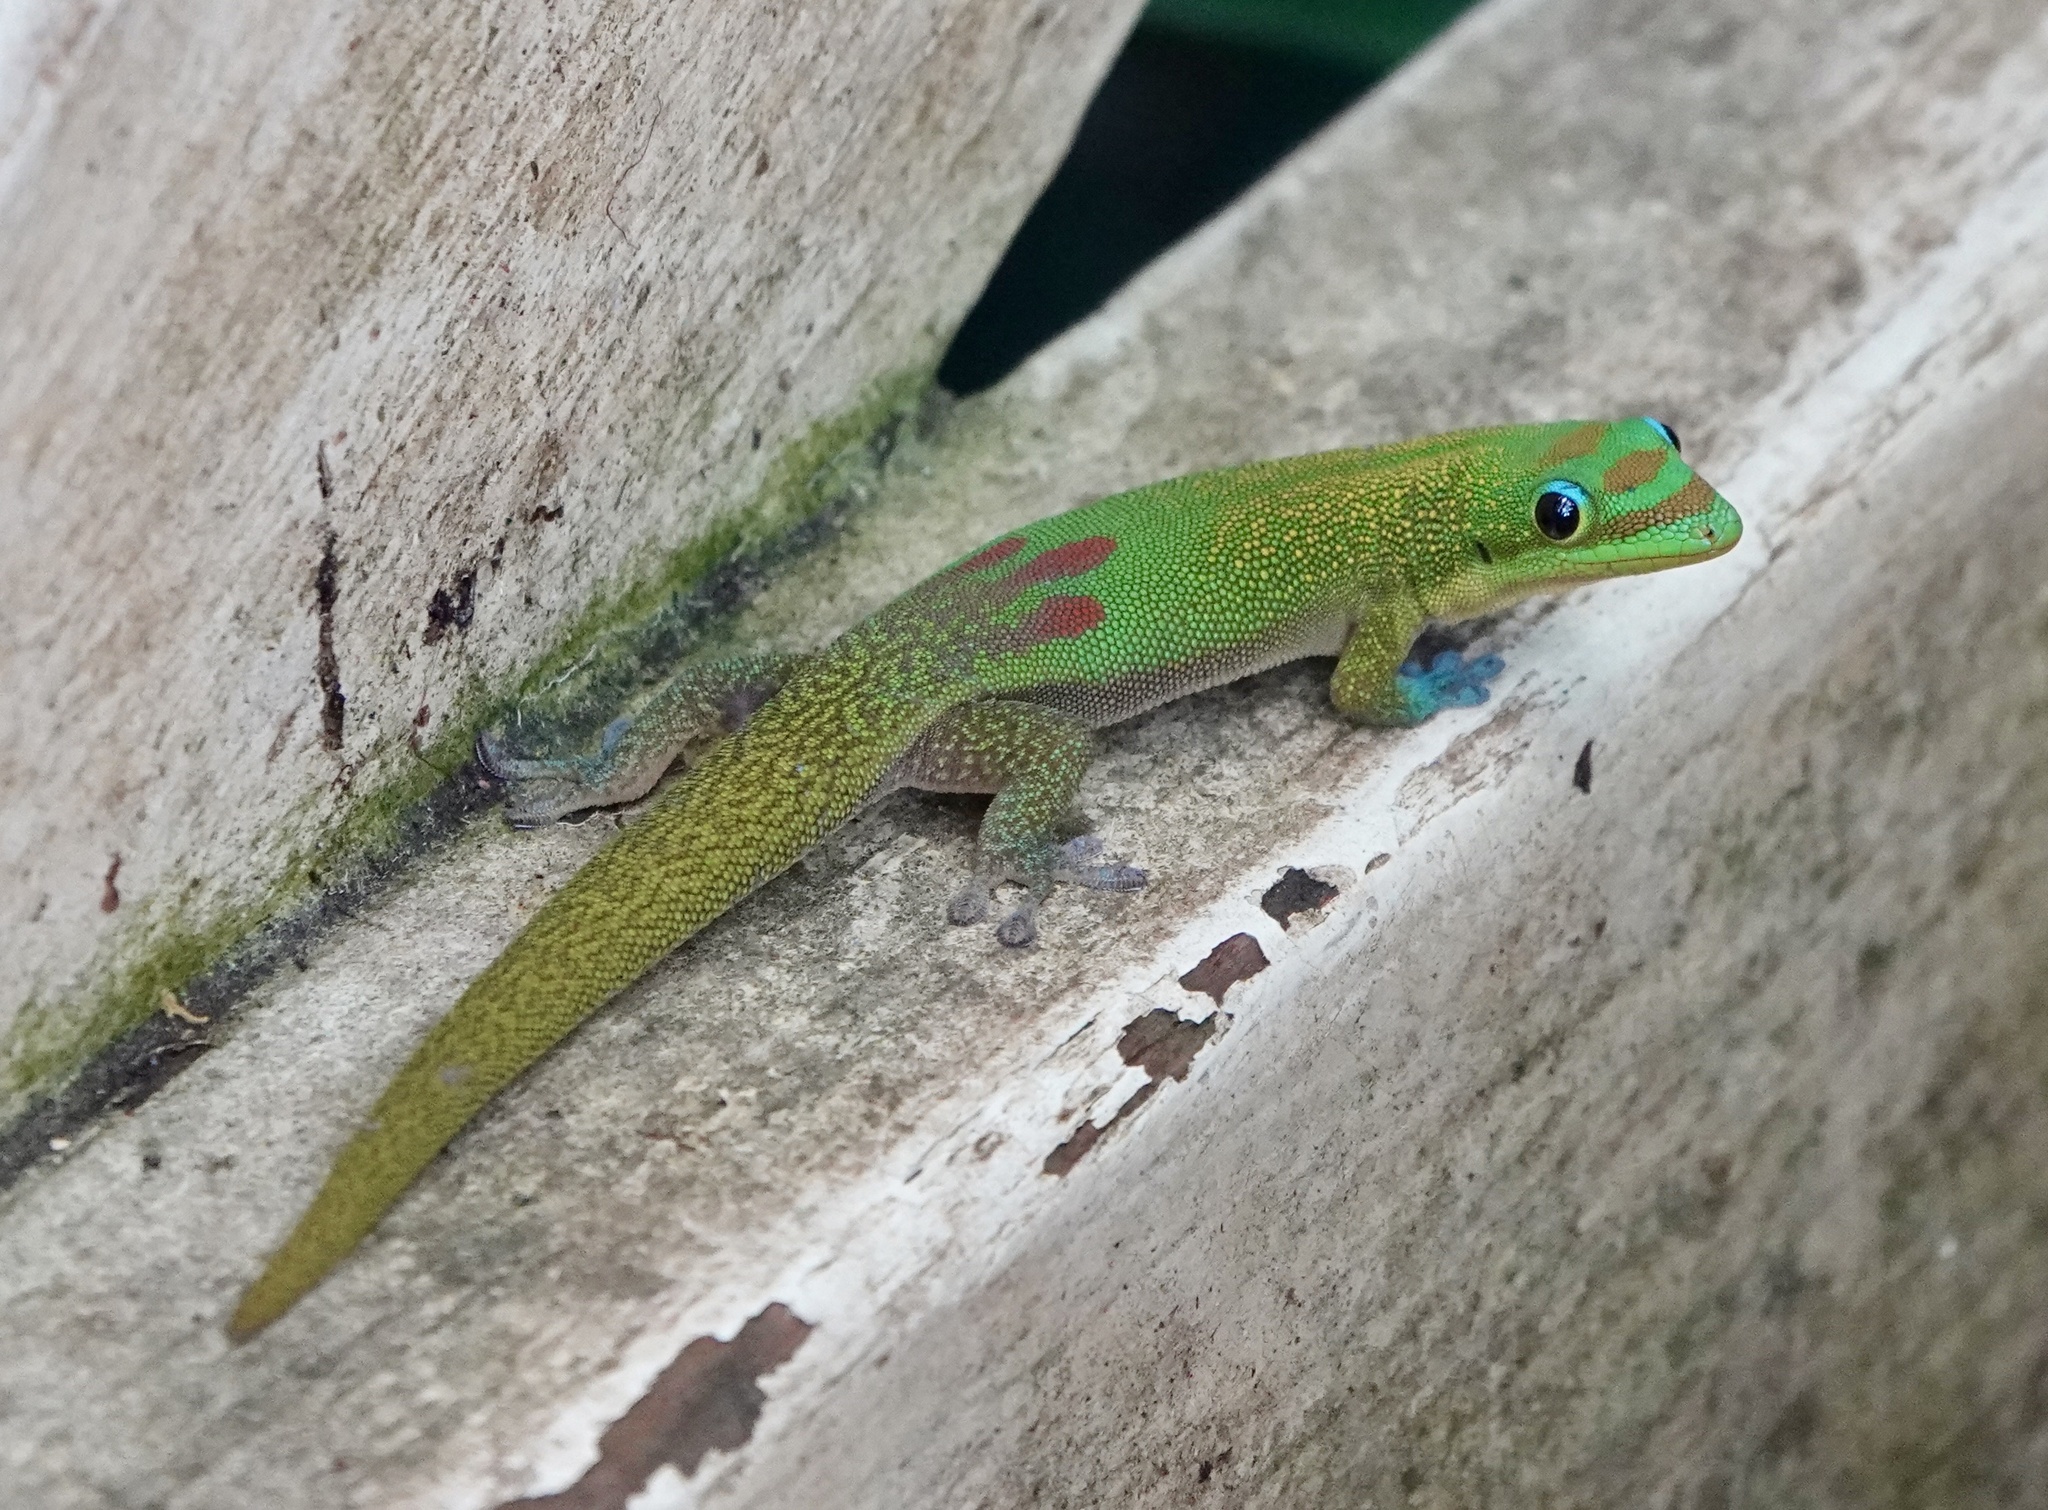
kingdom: Animalia
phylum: Chordata
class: Squamata
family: Gekkonidae
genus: Phelsuma
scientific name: Phelsuma laticauda
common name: Gold dust day gecko
